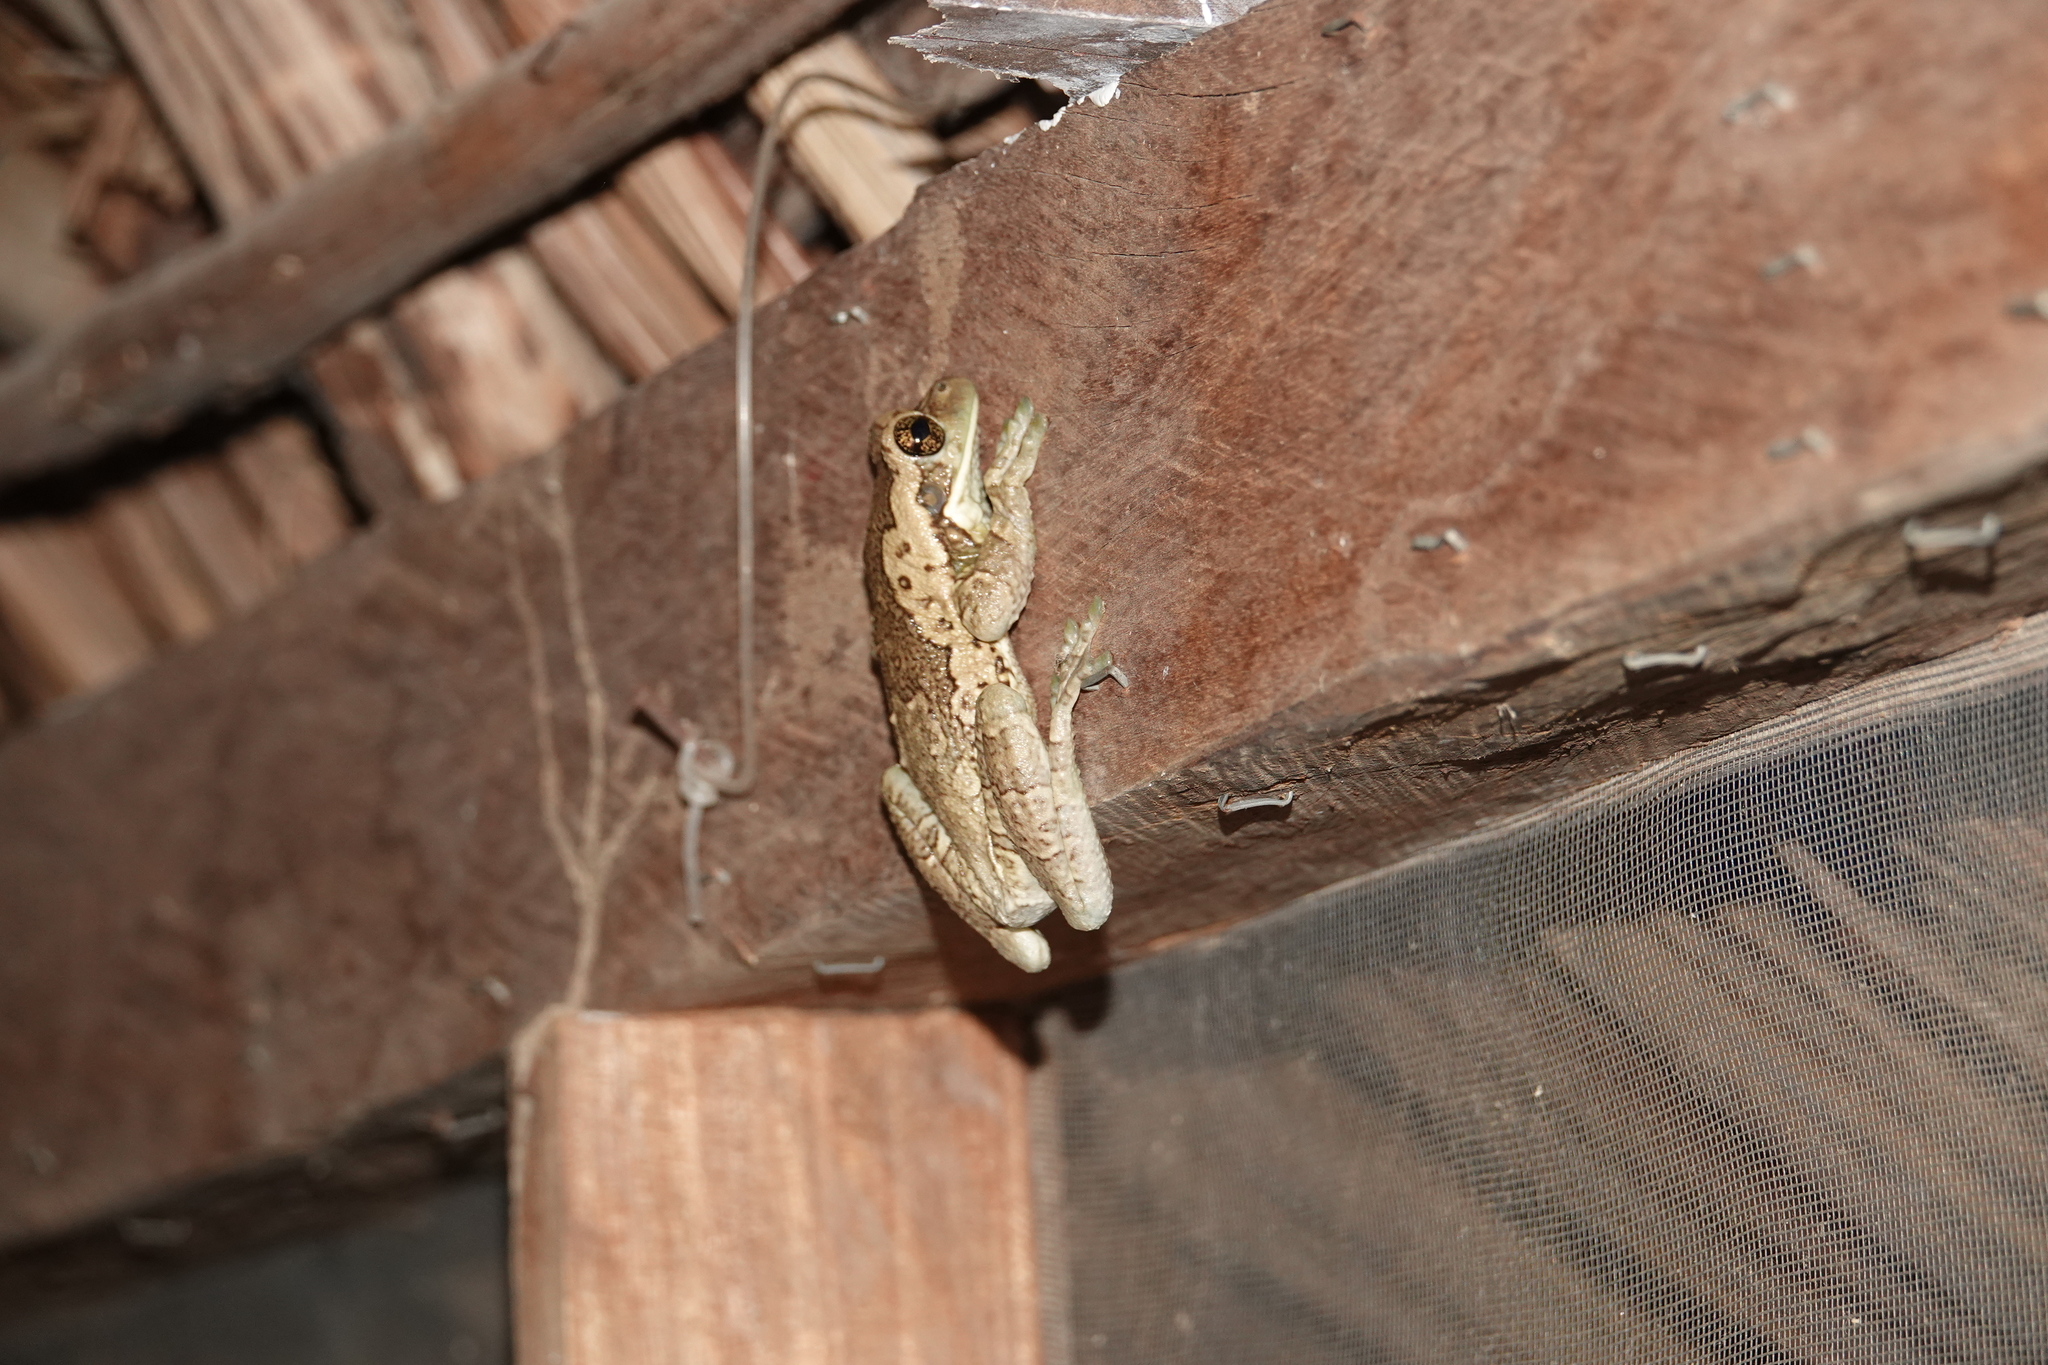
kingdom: Animalia
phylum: Chordata
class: Amphibia
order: Anura
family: Hylidae
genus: Trachycephalus
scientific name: Trachycephalus typhonius
